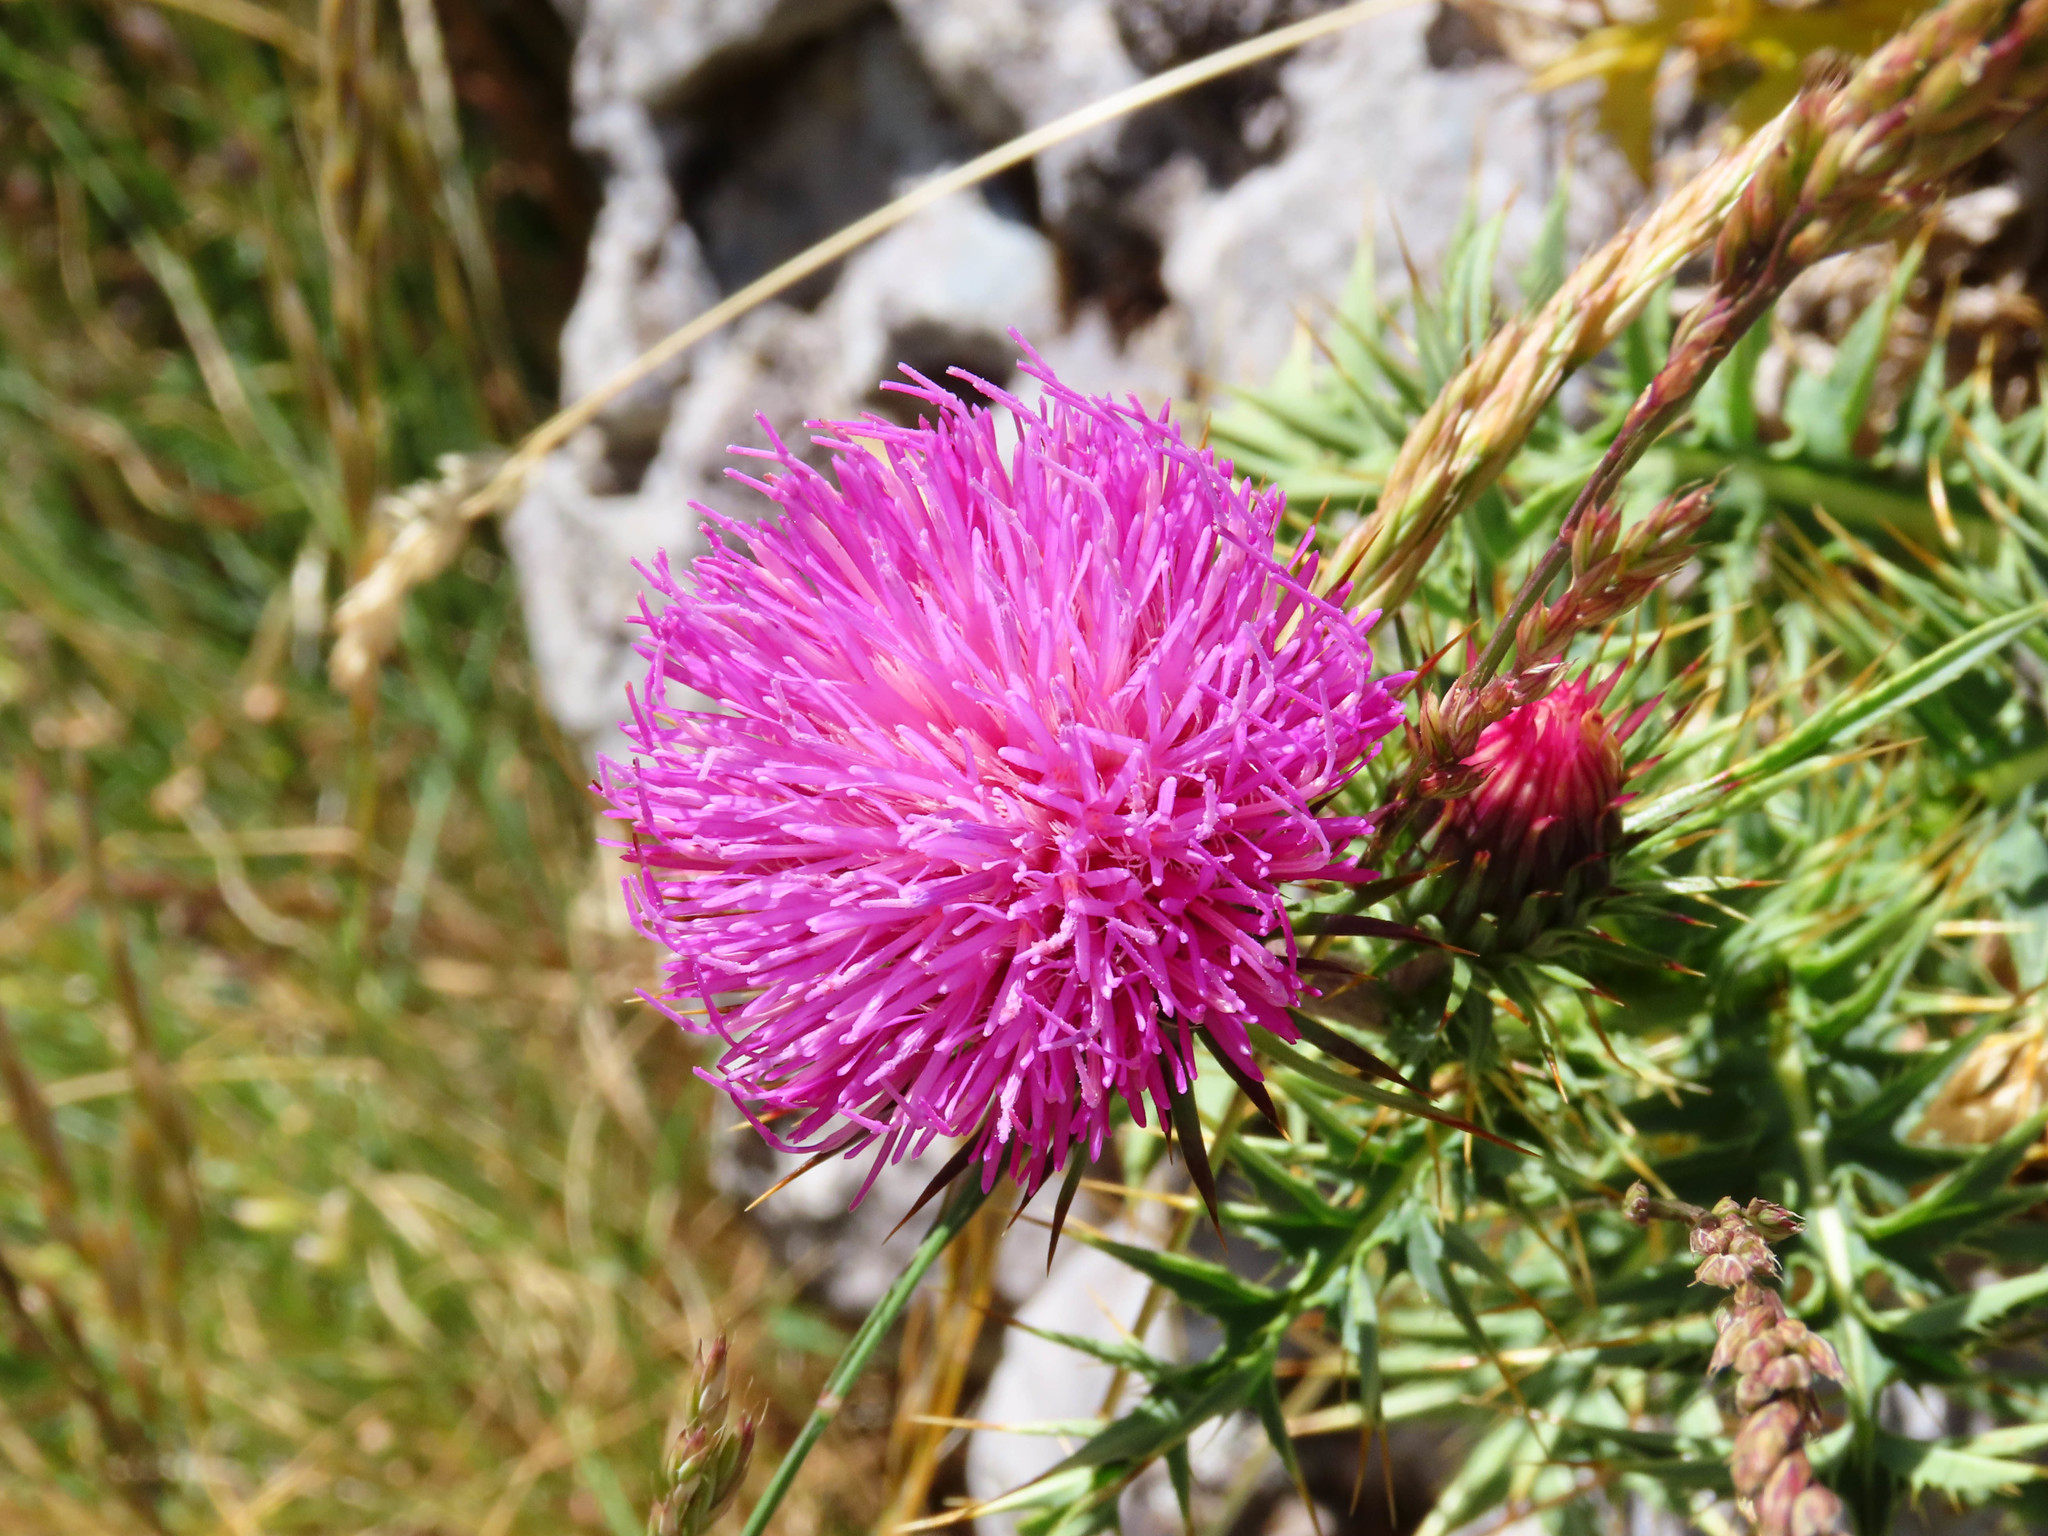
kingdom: Plantae
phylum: Tracheophyta
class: Magnoliopsida
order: Asterales
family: Asteraceae
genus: Carduus
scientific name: Carduus defloratus
